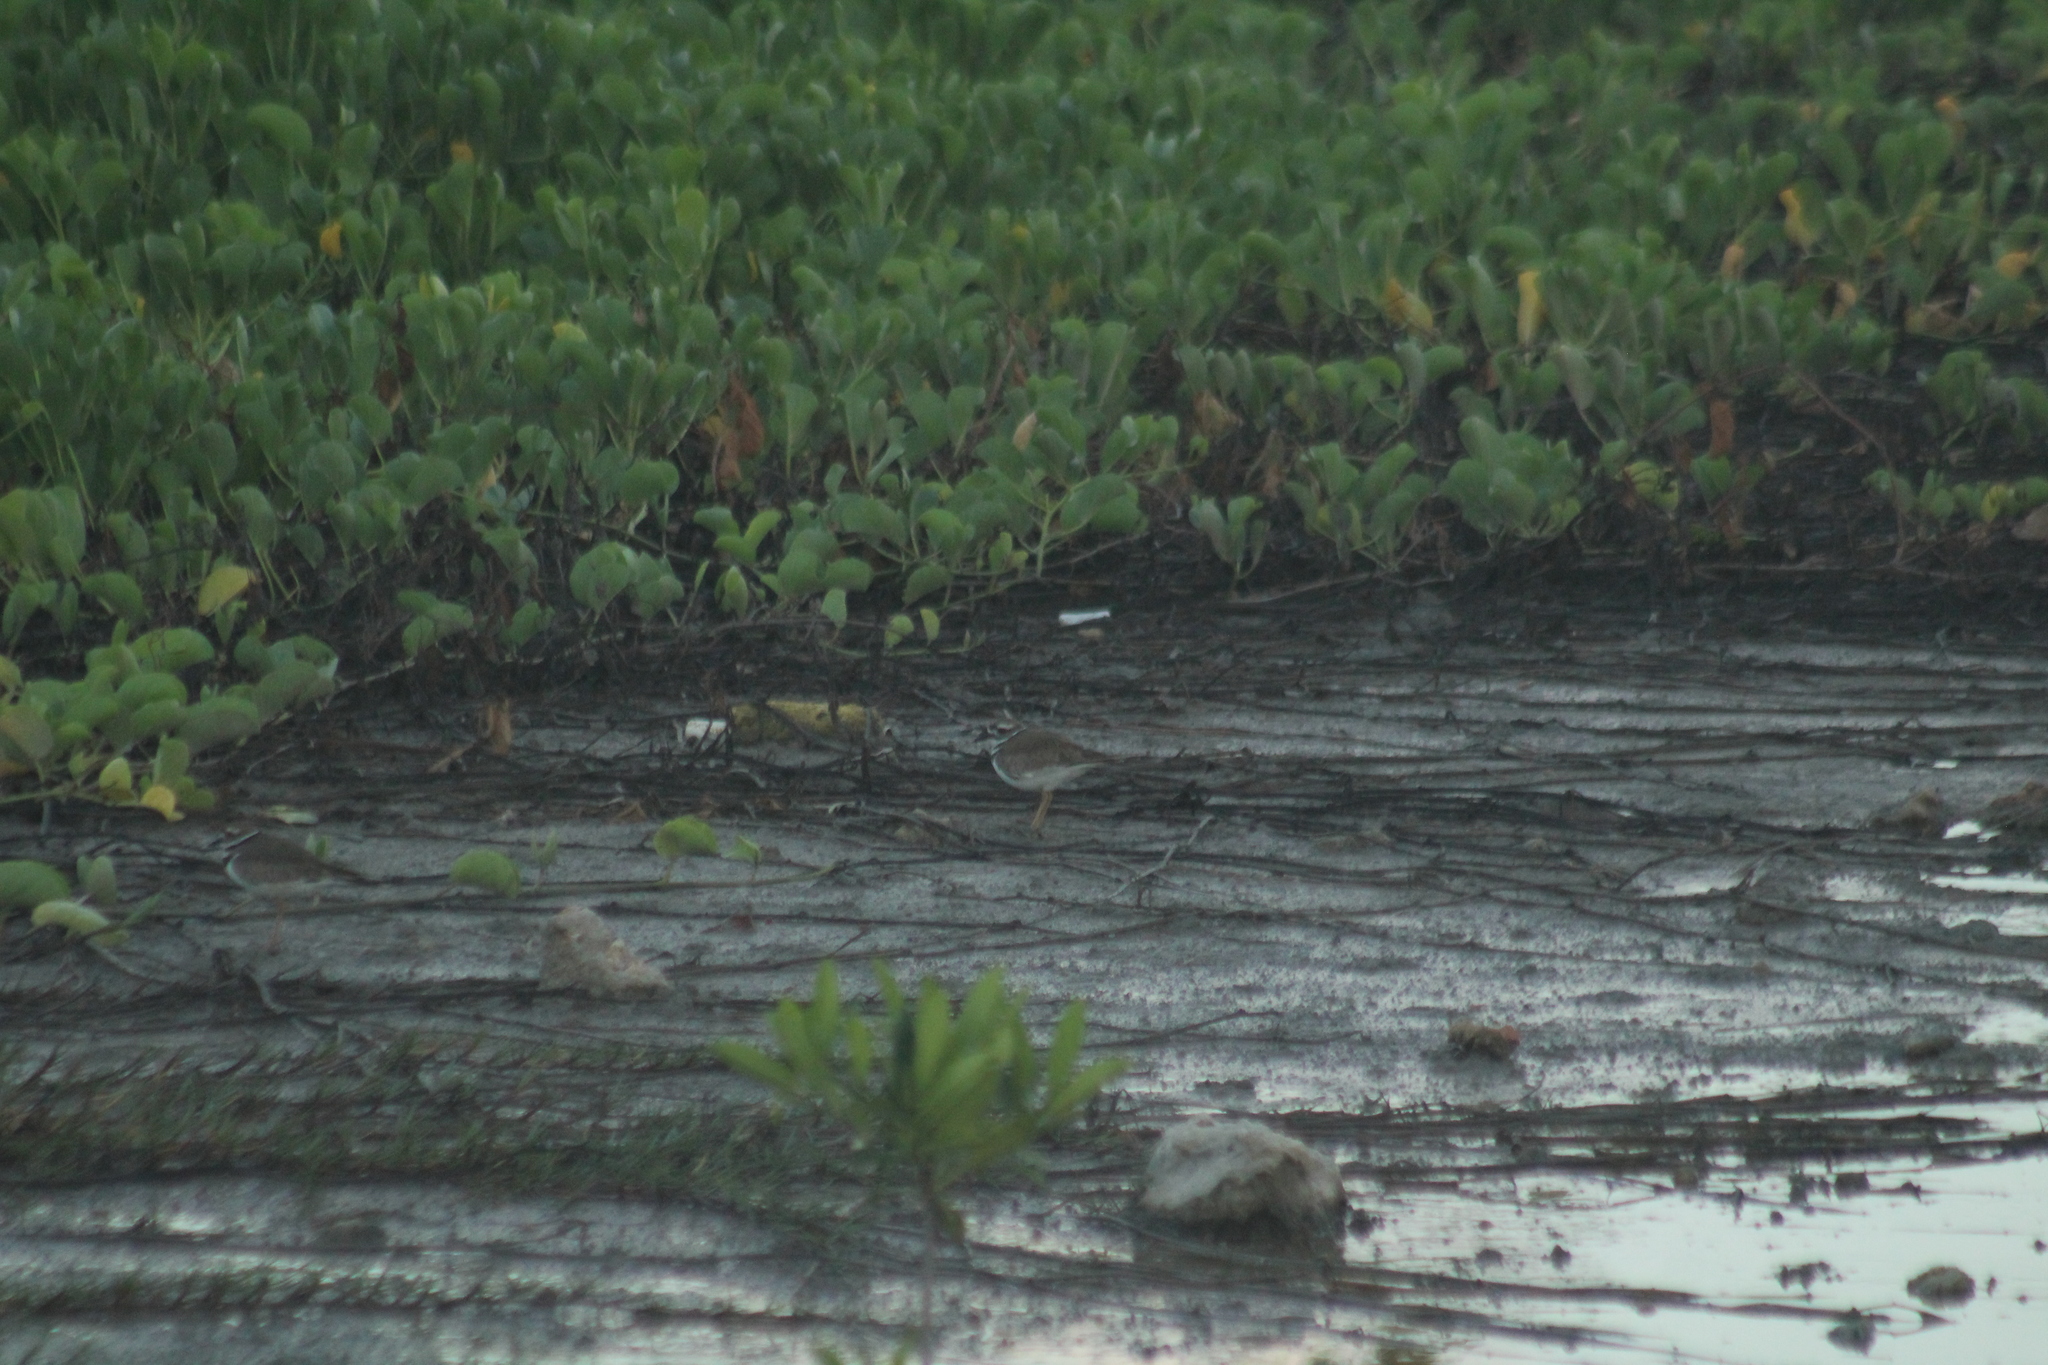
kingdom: Animalia
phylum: Chordata
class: Aves
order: Charadriiformes
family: Charadriidae
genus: Charadrius
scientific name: Charadrius vociferus
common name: Killdeer
